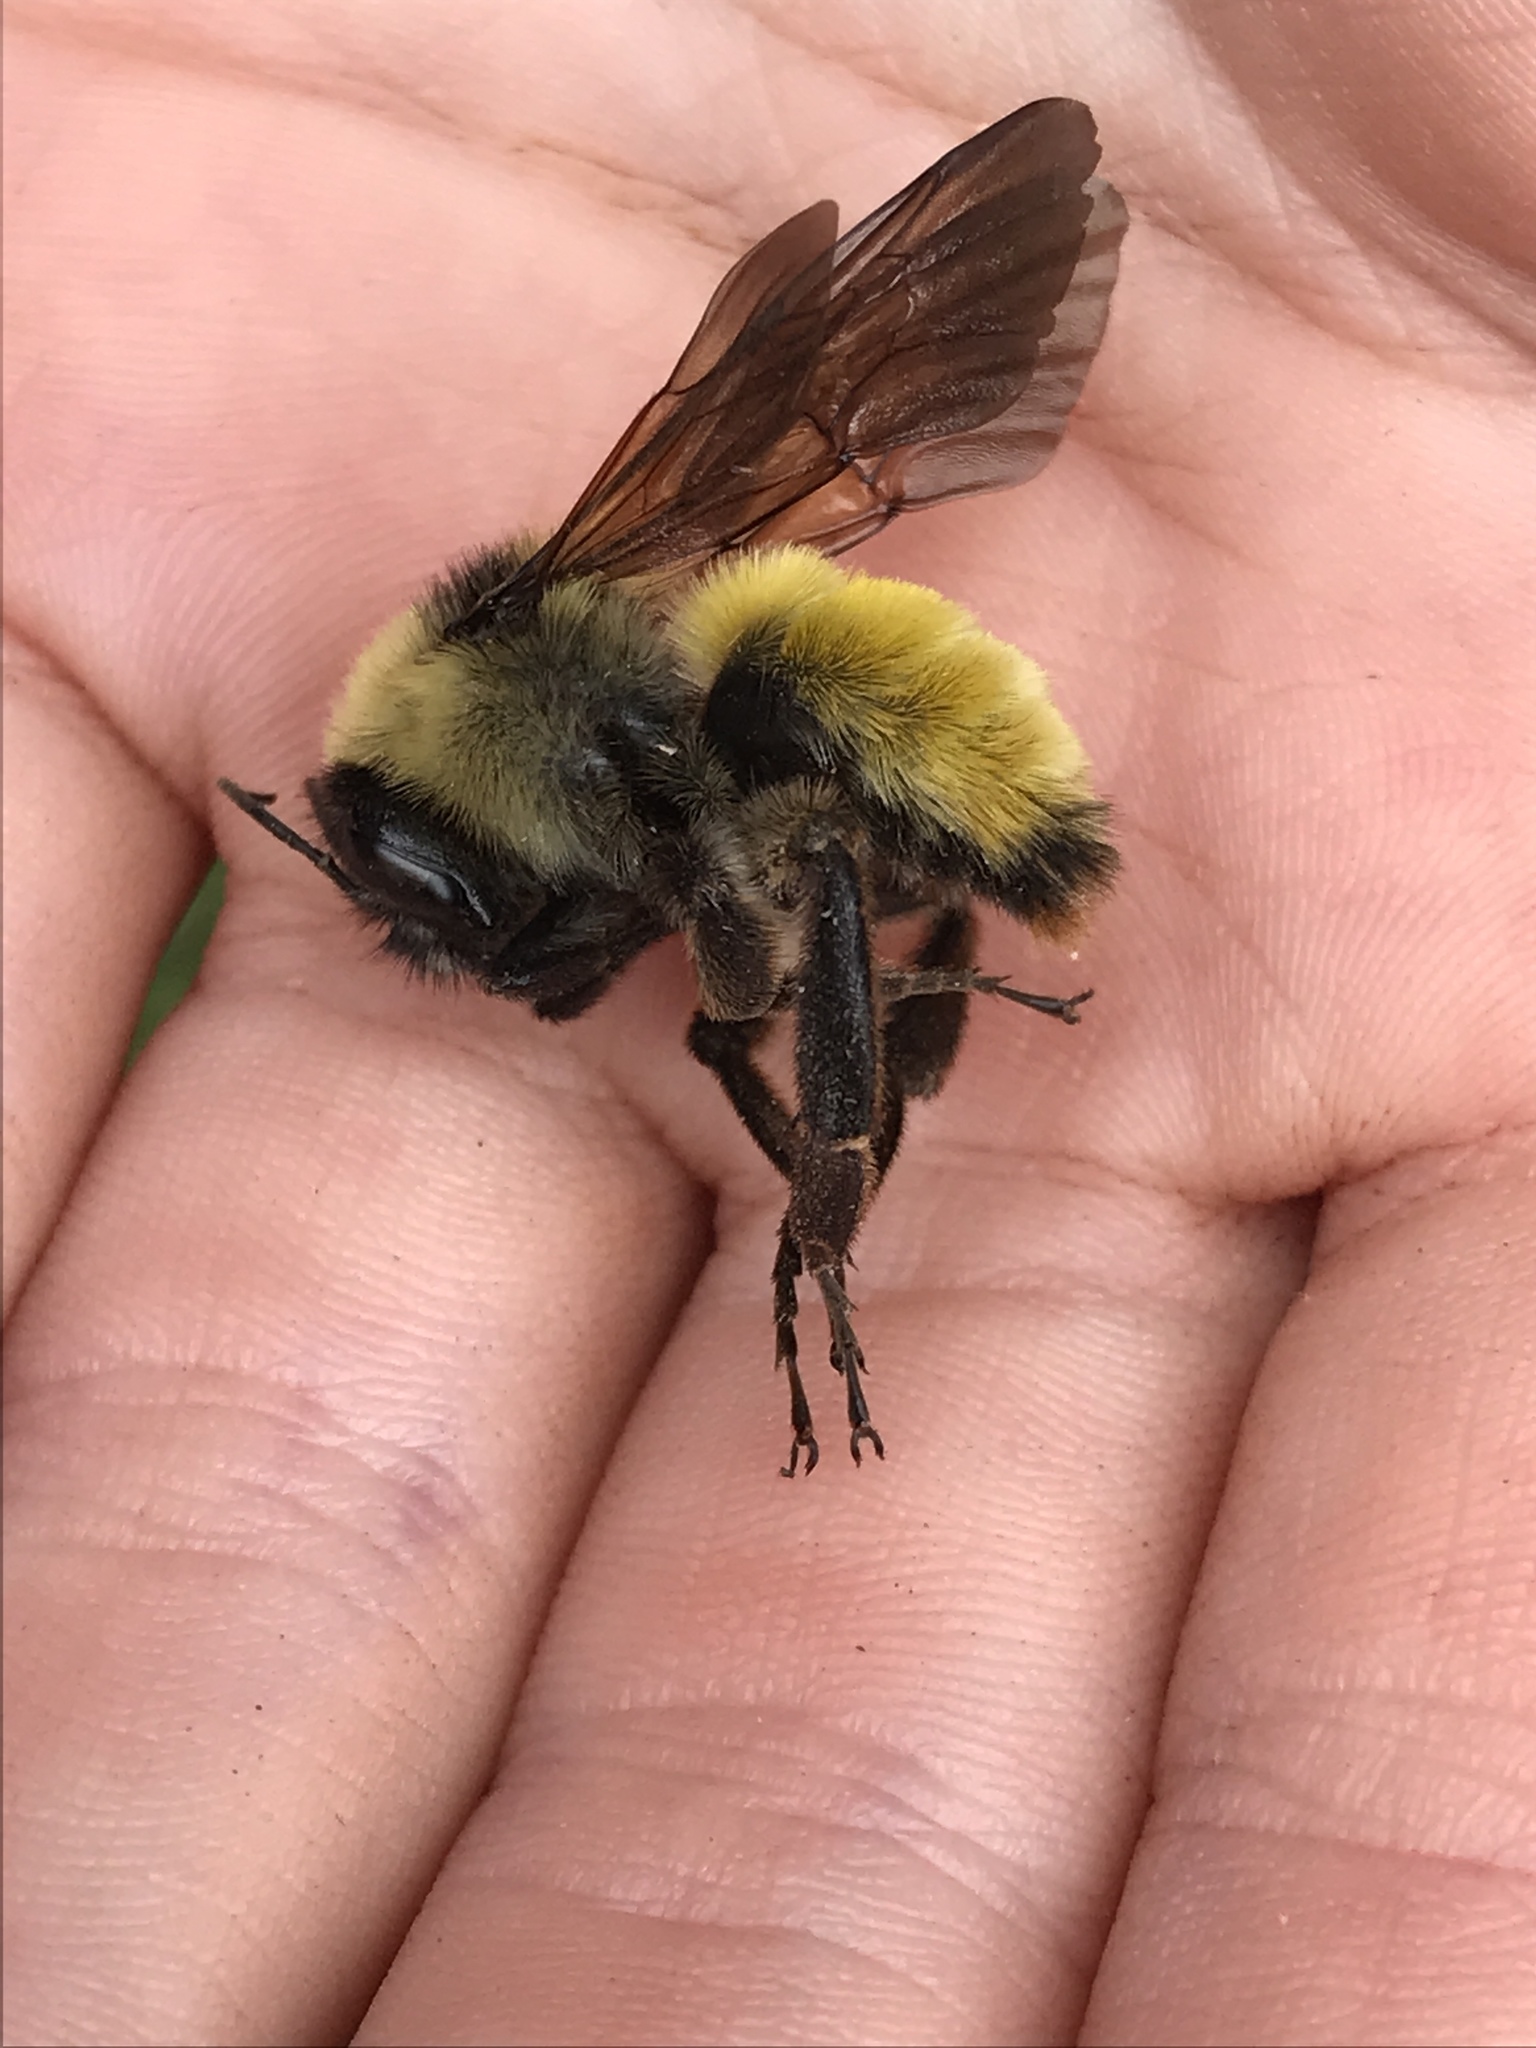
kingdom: Animalia
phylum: Arthropoda
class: Insecta
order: Hymenoptera
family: Apidae
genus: Bombus
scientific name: Bombus pensylvanicus
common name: Bumble bee
